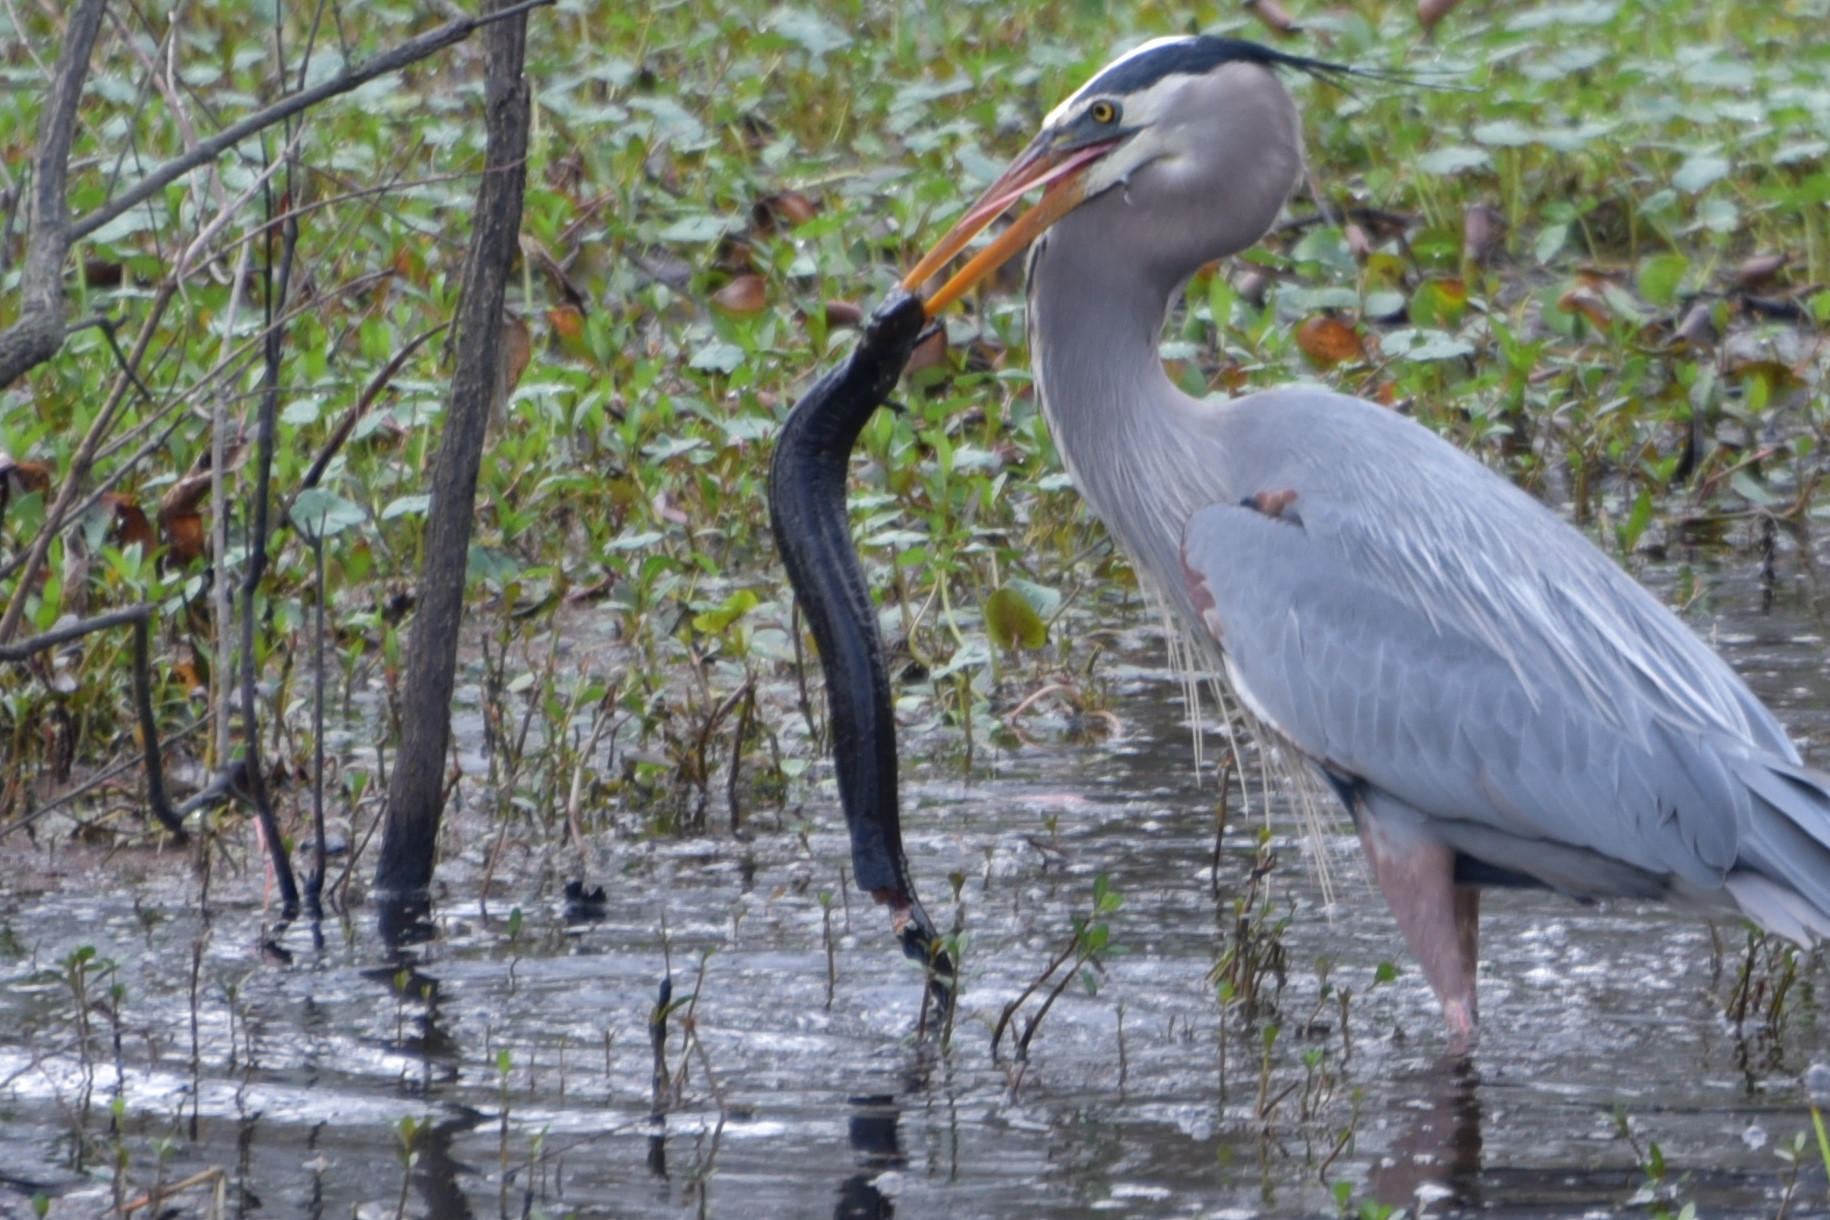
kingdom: Animalia
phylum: Chordata
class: Aves
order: Pelecaniformes
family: Ardeidae
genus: Ardea
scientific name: Ardea herodias
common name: Great blue heron
